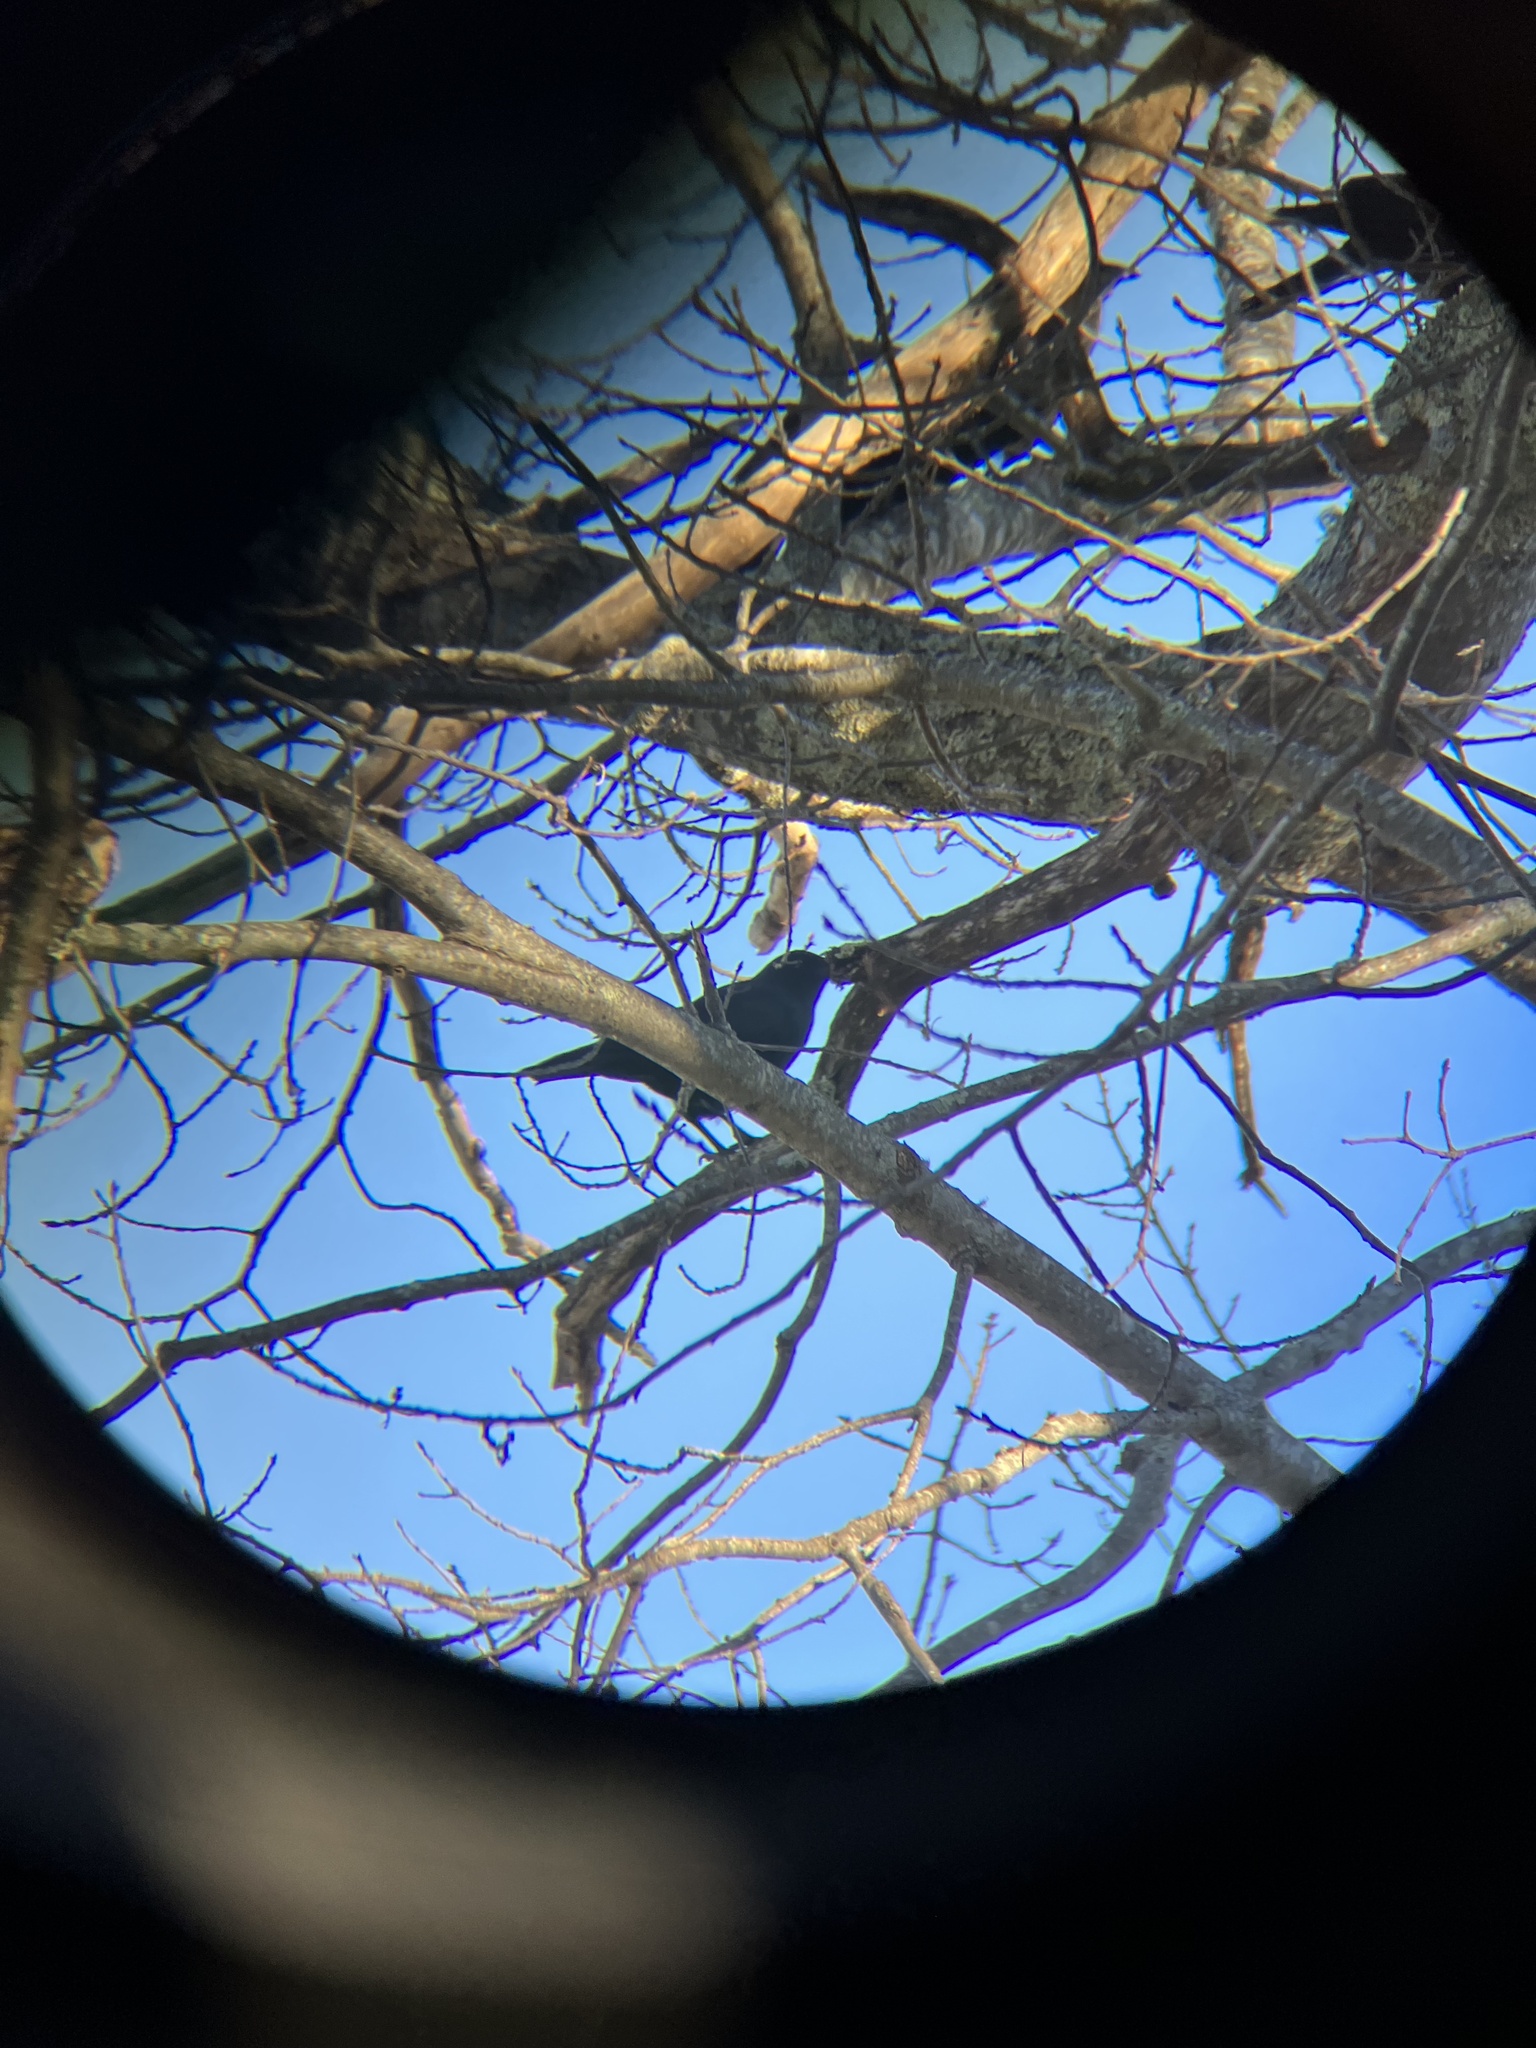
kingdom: Animalia
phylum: Chordata
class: Aves
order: Passeriformes
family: Corvidae
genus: Corvus
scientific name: Corvus brachyrhynchos
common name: American crow
